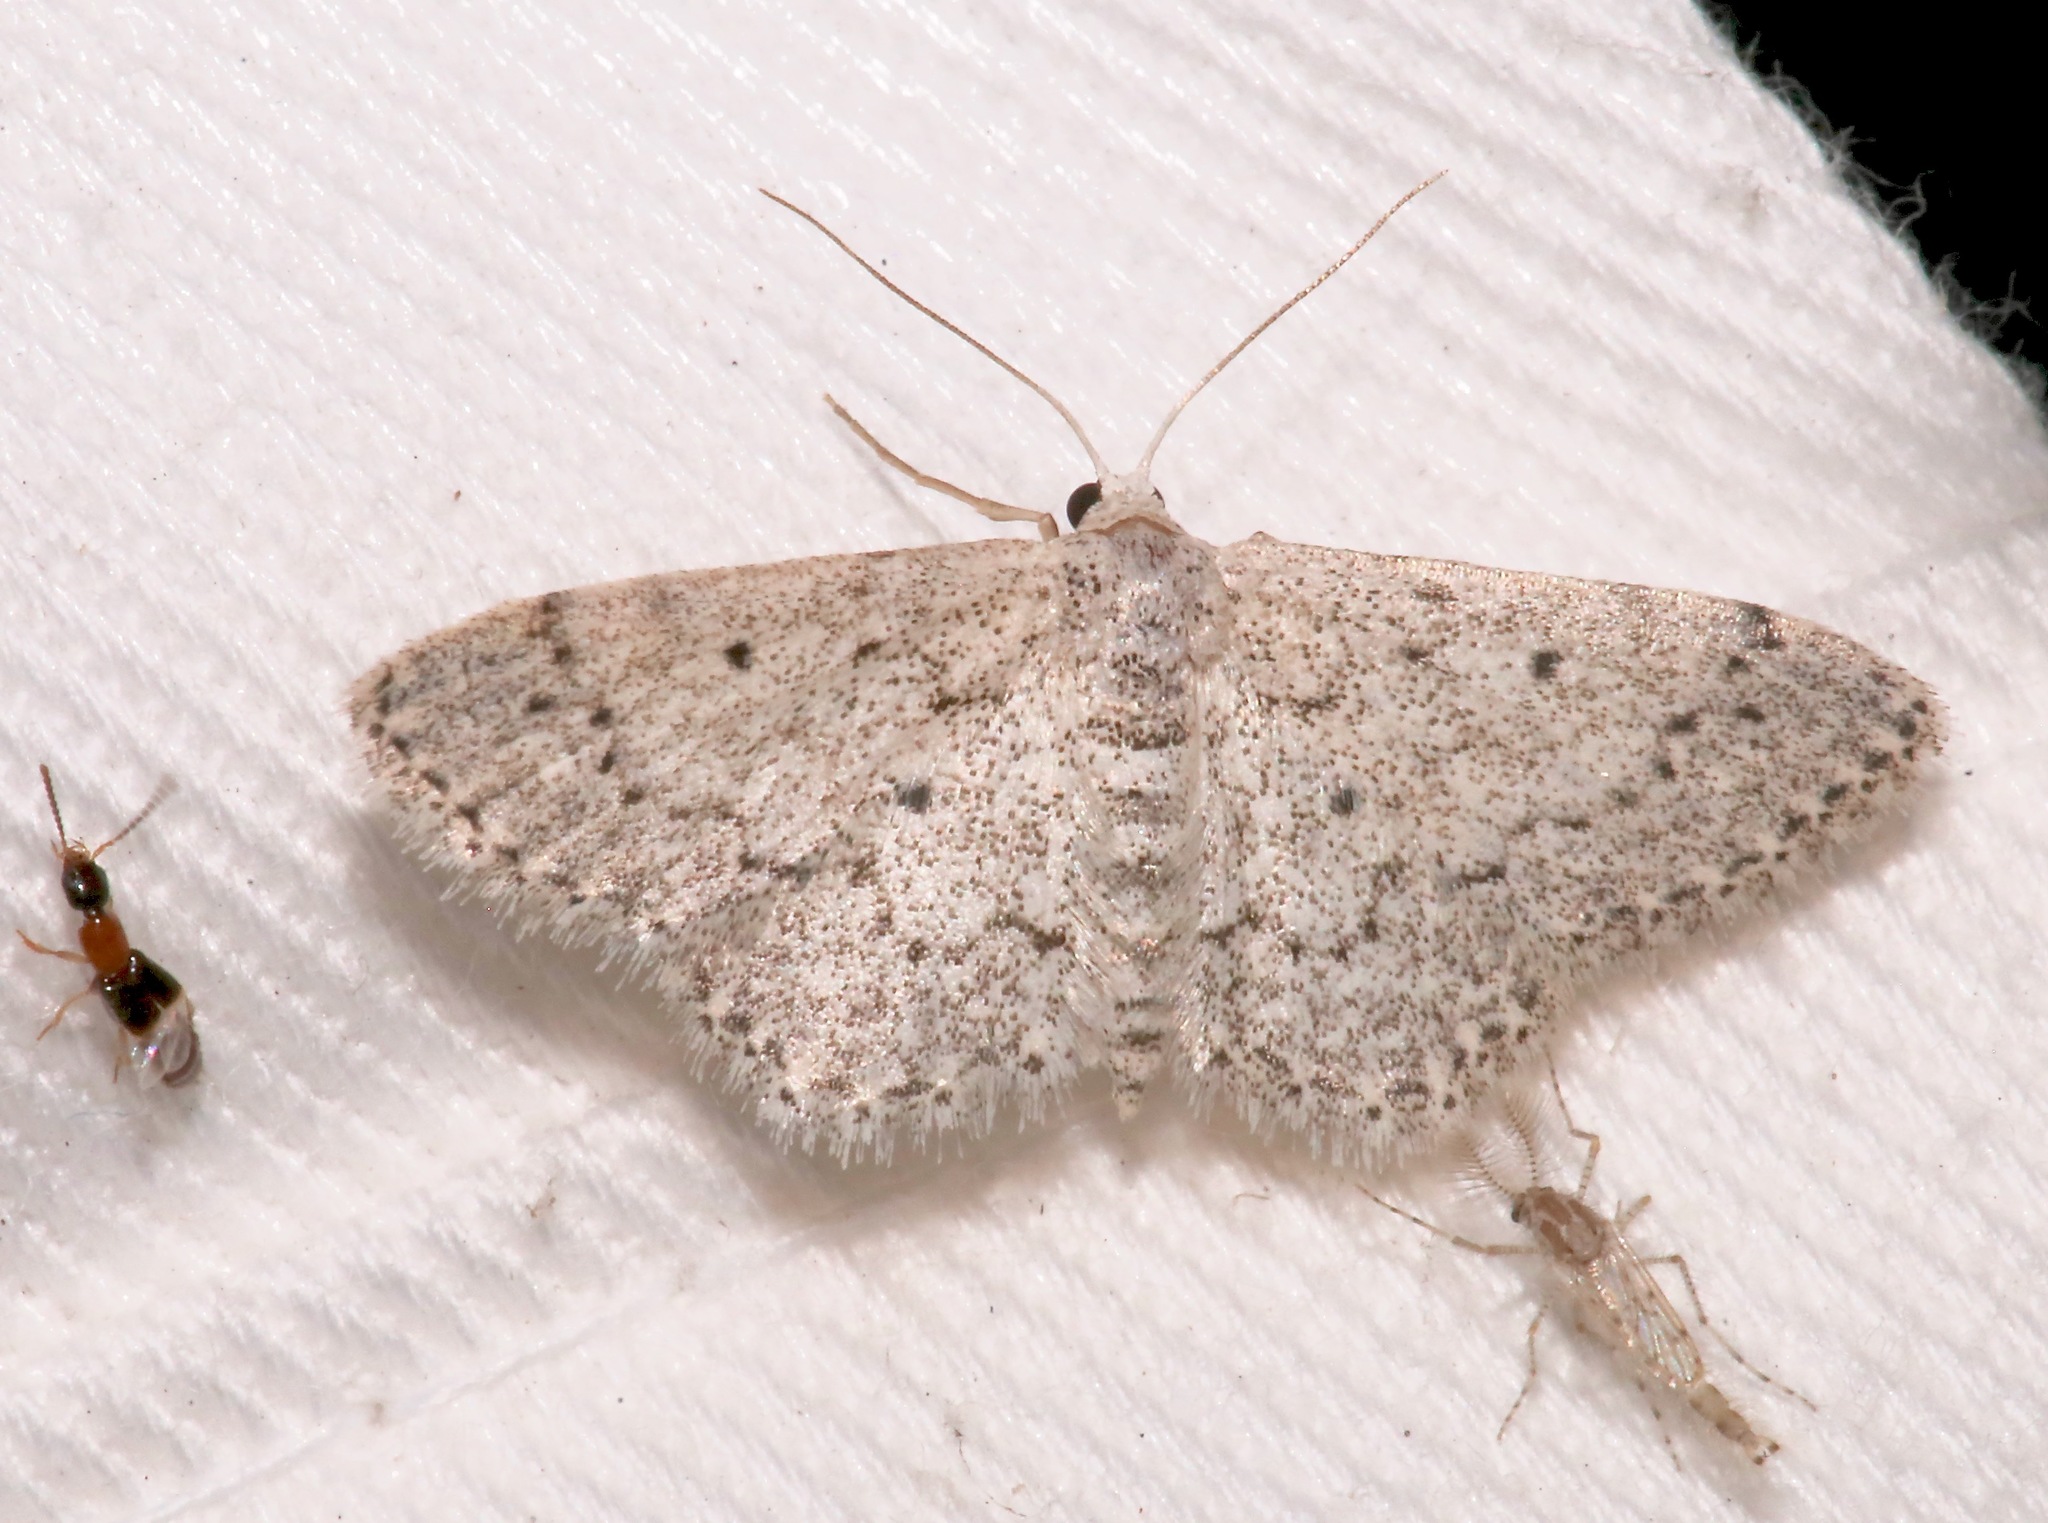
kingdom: Animalia
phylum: Arthropoda
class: Insecta
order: Lepidoptera
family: Geometridae
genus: Idaea
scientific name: Idaea ostentaria
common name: Showy wave moth
